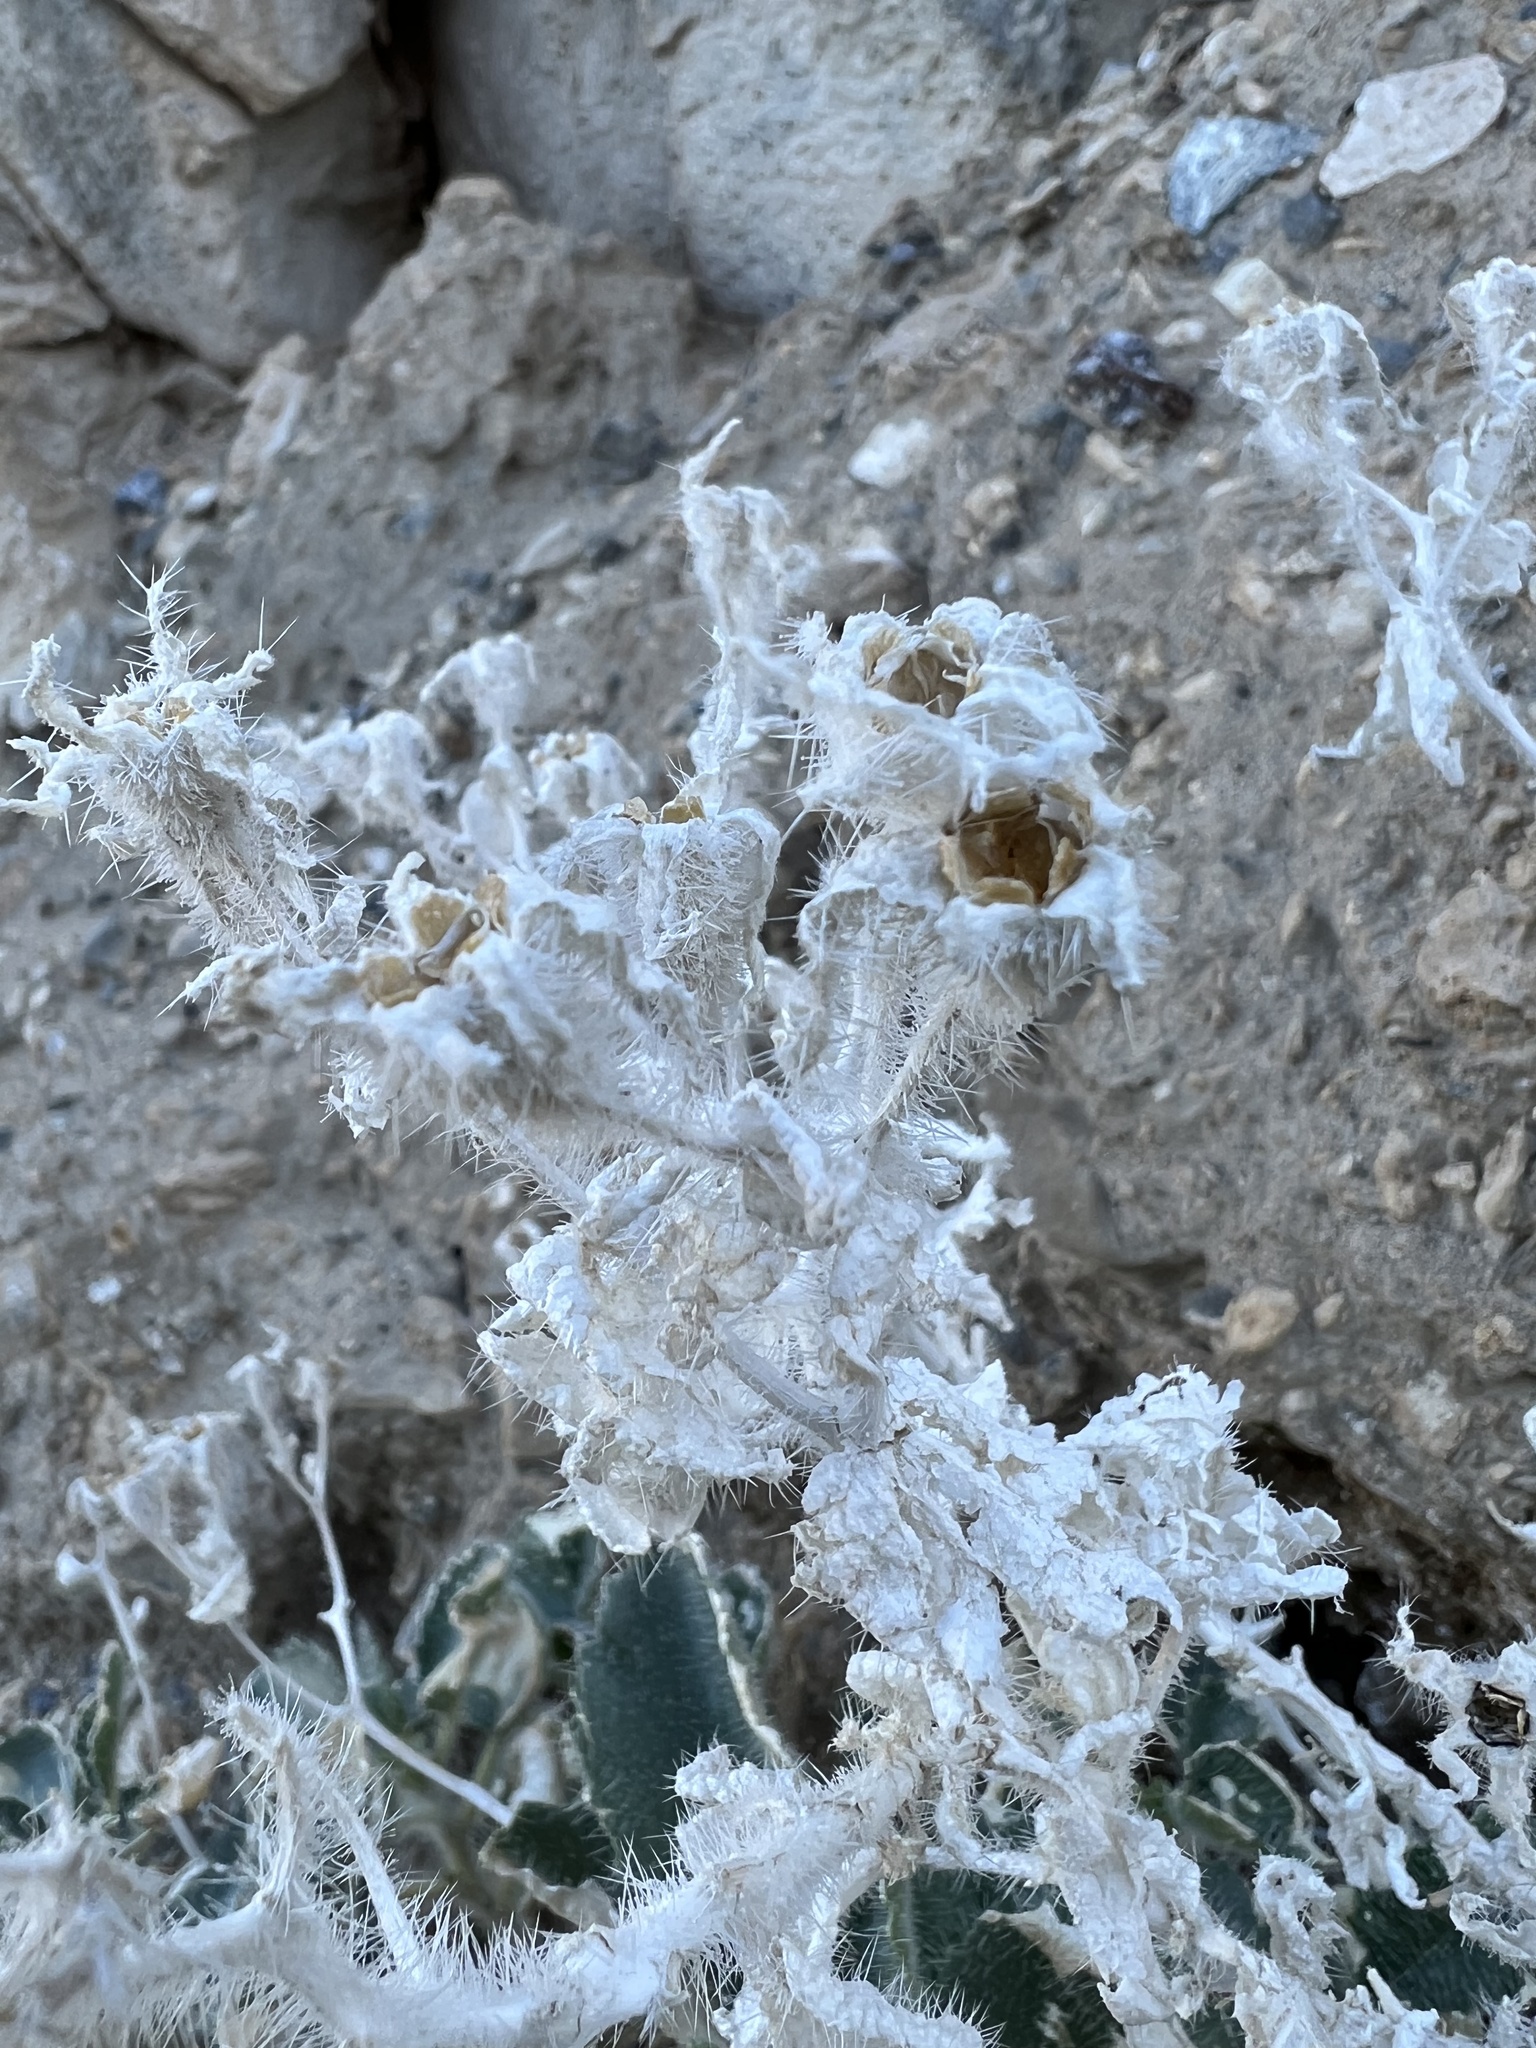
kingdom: Plantae
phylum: Tracheophyta
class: Magnoliopsida
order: Cornales
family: Loasaceae
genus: Eucnide
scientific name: Eucnide urens
